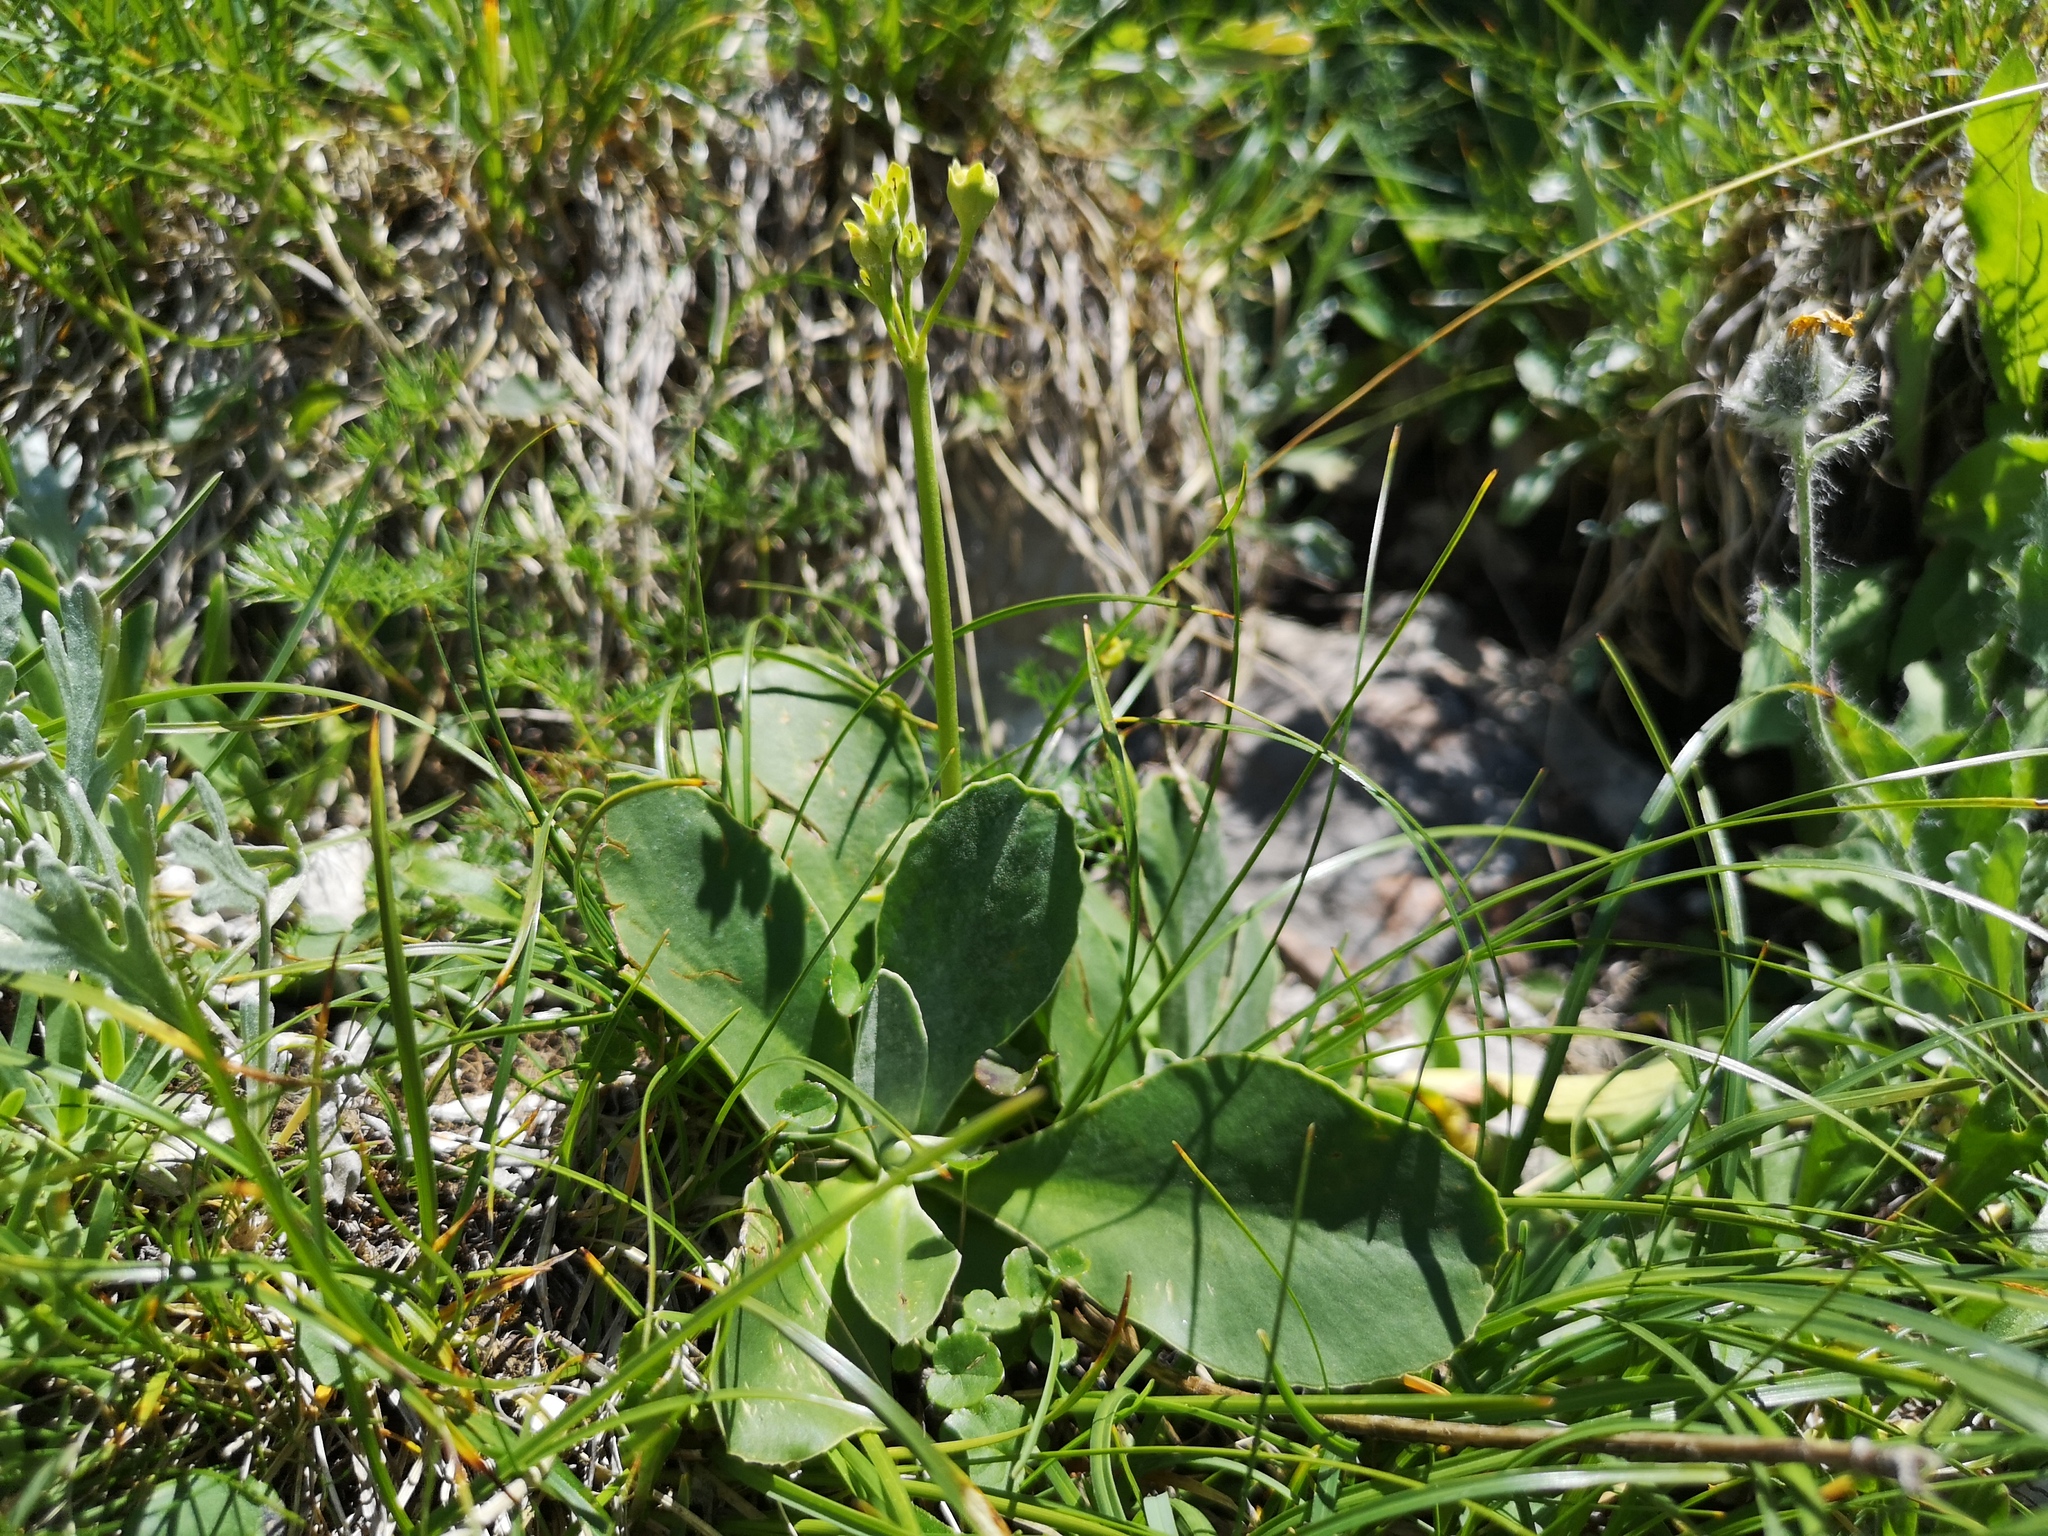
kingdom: Plantae
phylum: Tracheophyta
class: Magnoliopsida
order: Ericales
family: Primulaceae
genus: Primula
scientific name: Primula auricula
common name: Auricula
